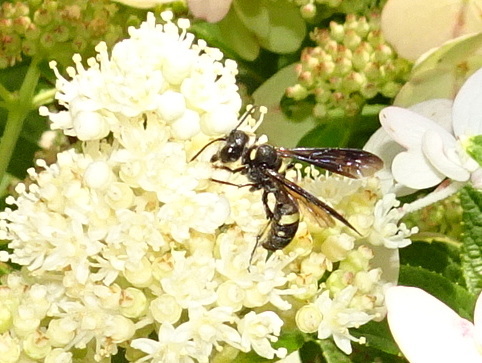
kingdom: Animalia
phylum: Arthropoda
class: Insecta
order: Hymenoptera
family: Crabronidae
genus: Cerceris
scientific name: Cerceris fumipennis
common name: Smokey-winged beetle bandit wasp
